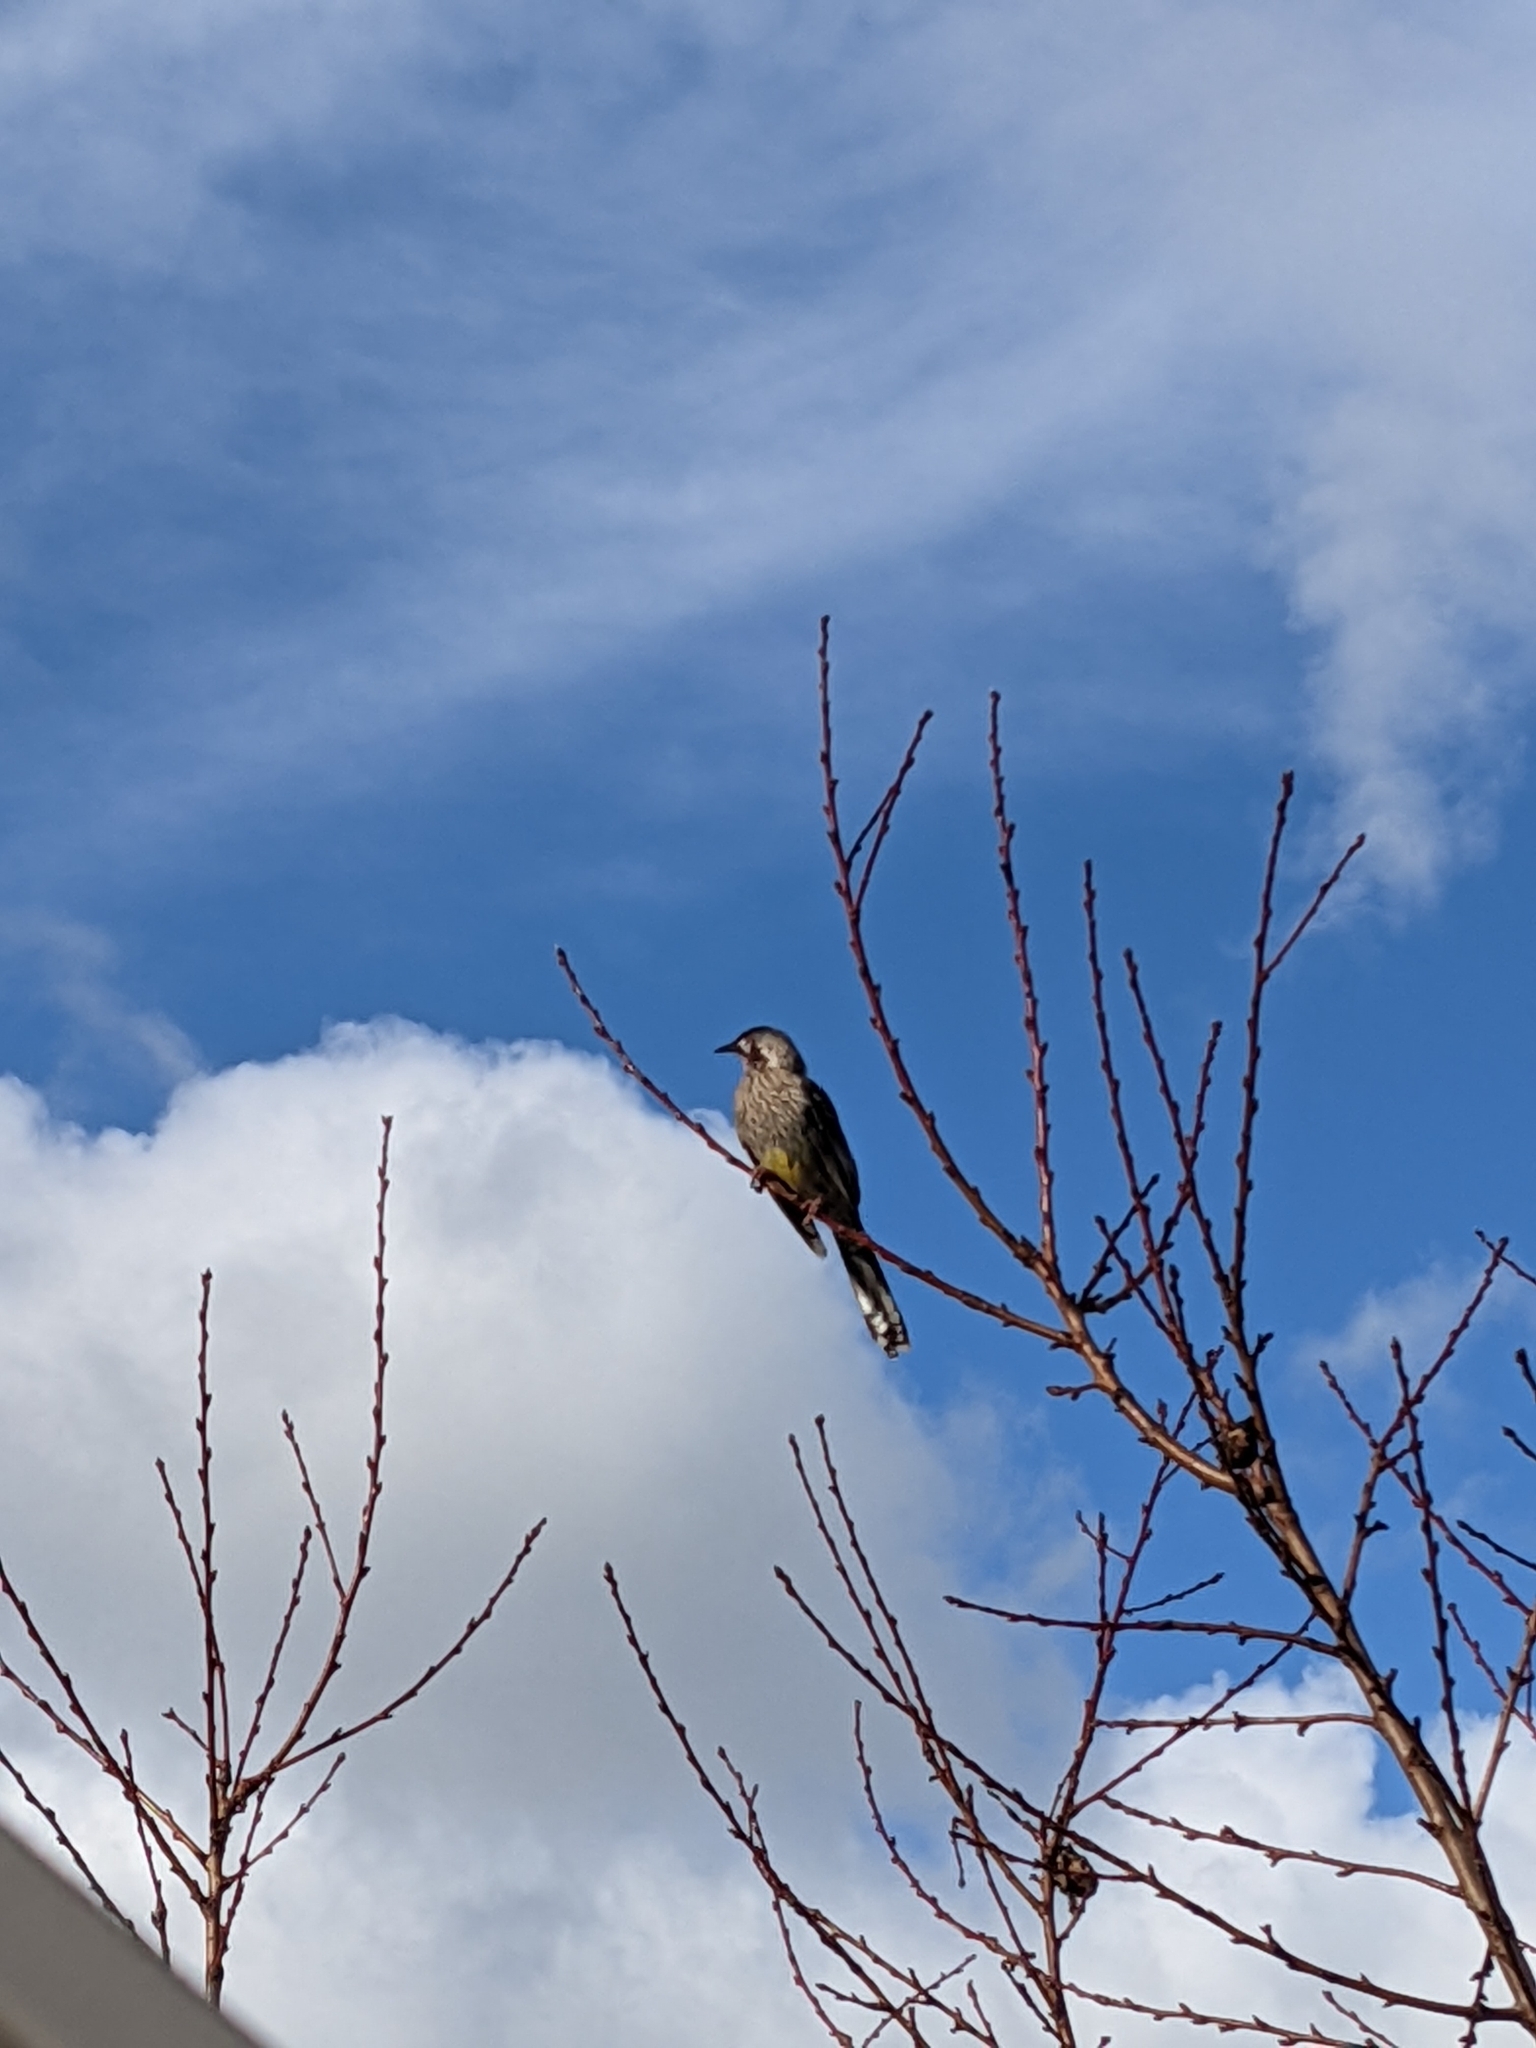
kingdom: Animalia
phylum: Chordata
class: Aves
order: Passeriformes
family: Meliphagidae
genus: Anthochaera
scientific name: Anthochaera carunculata
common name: Red wattlebird
